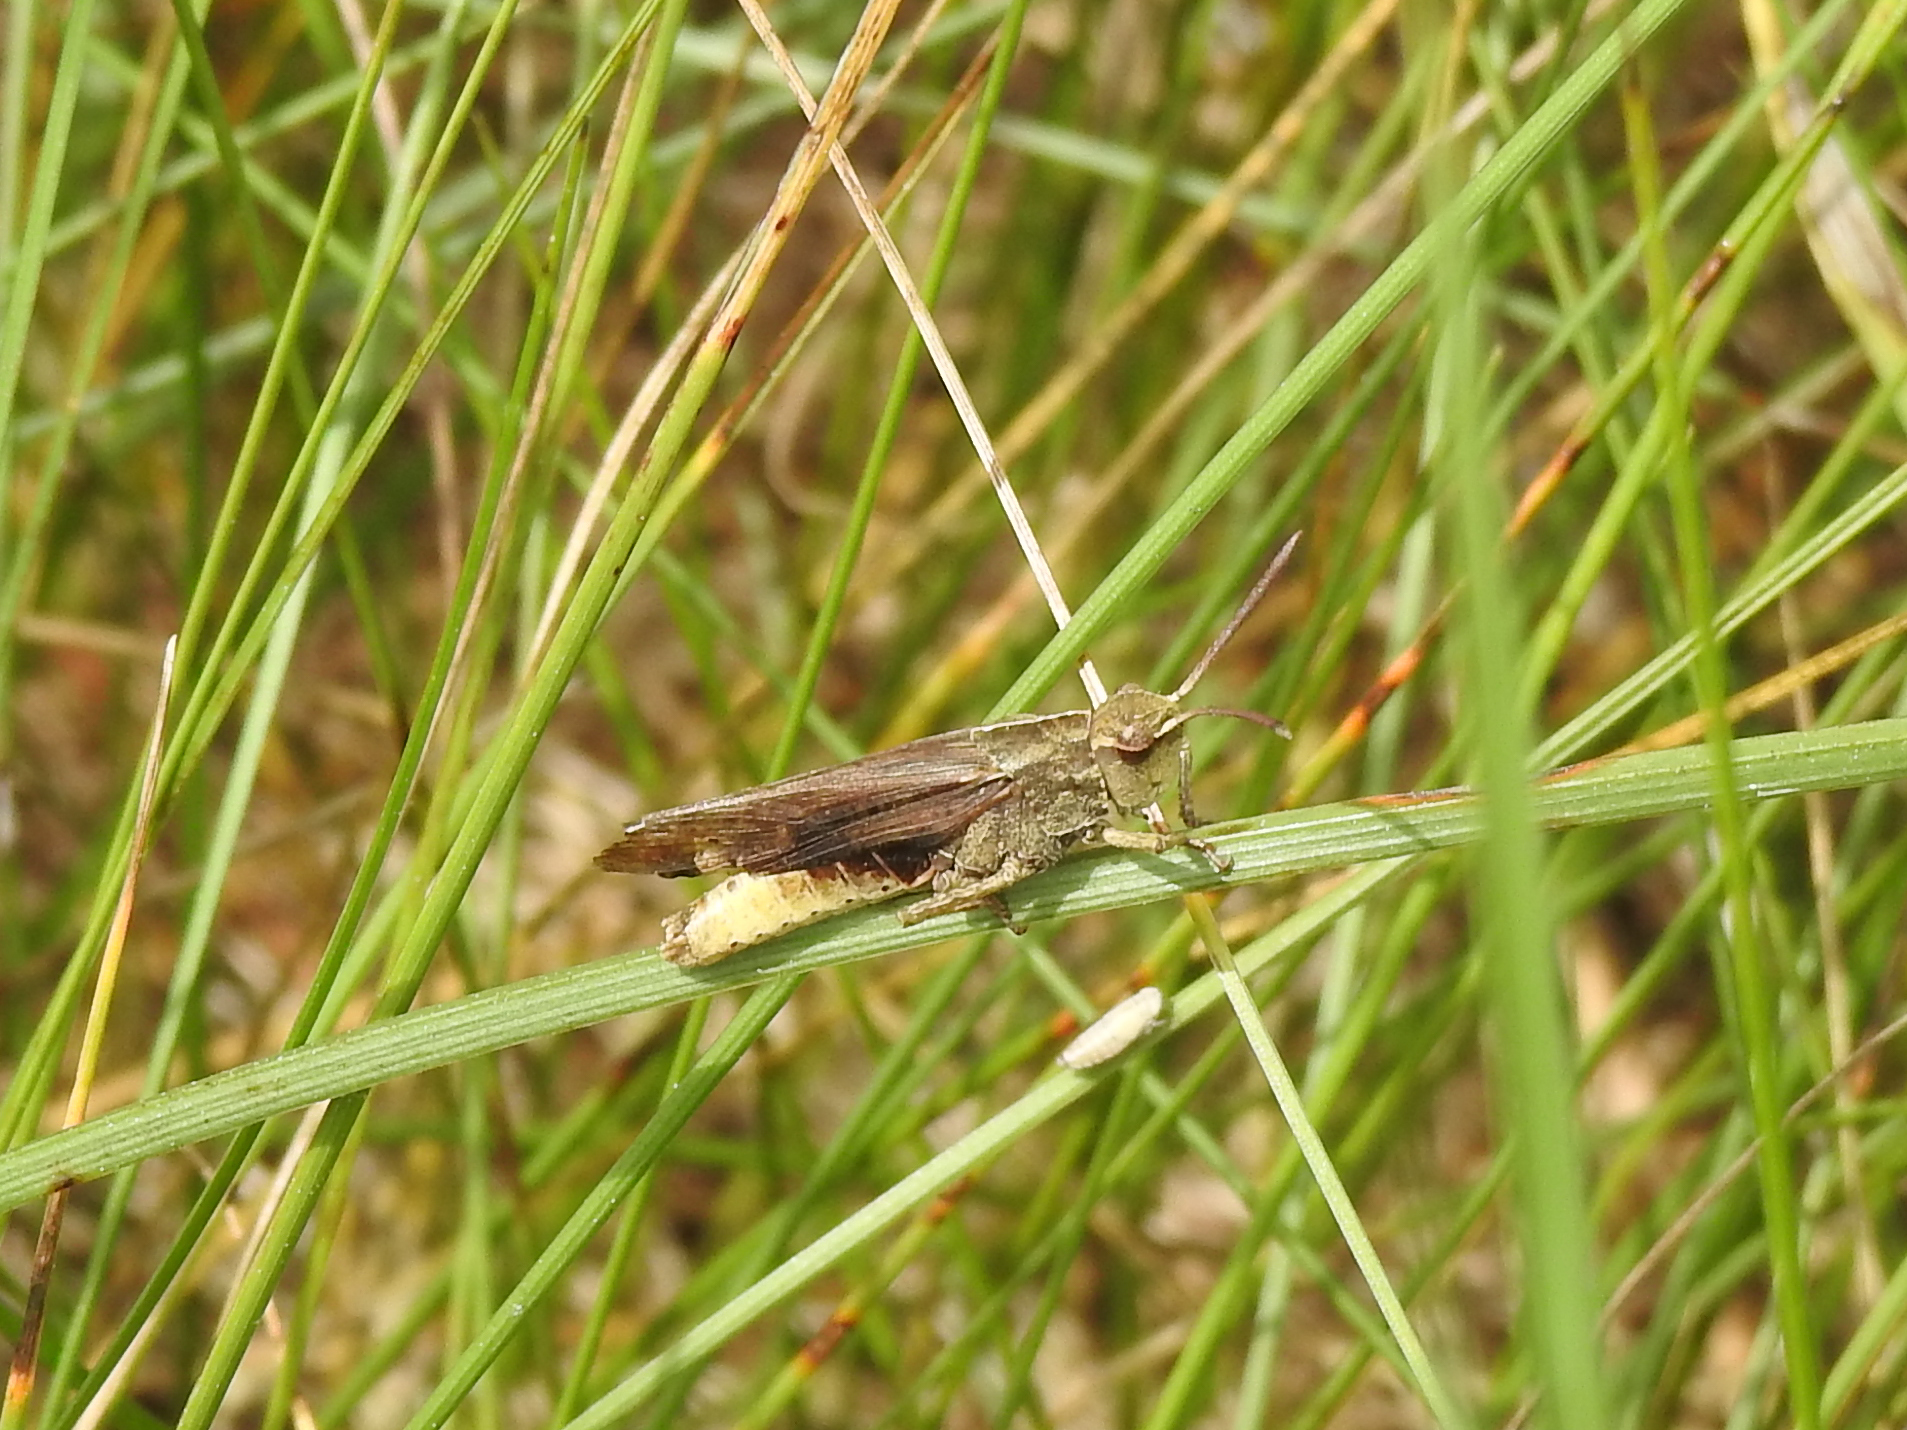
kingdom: Animalia
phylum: Arthropoda
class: Insecta
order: Orthoptera
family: Acrididae
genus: Chortophaga
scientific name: Chortophaga viridifasciata
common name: Green-striped grasshopper
